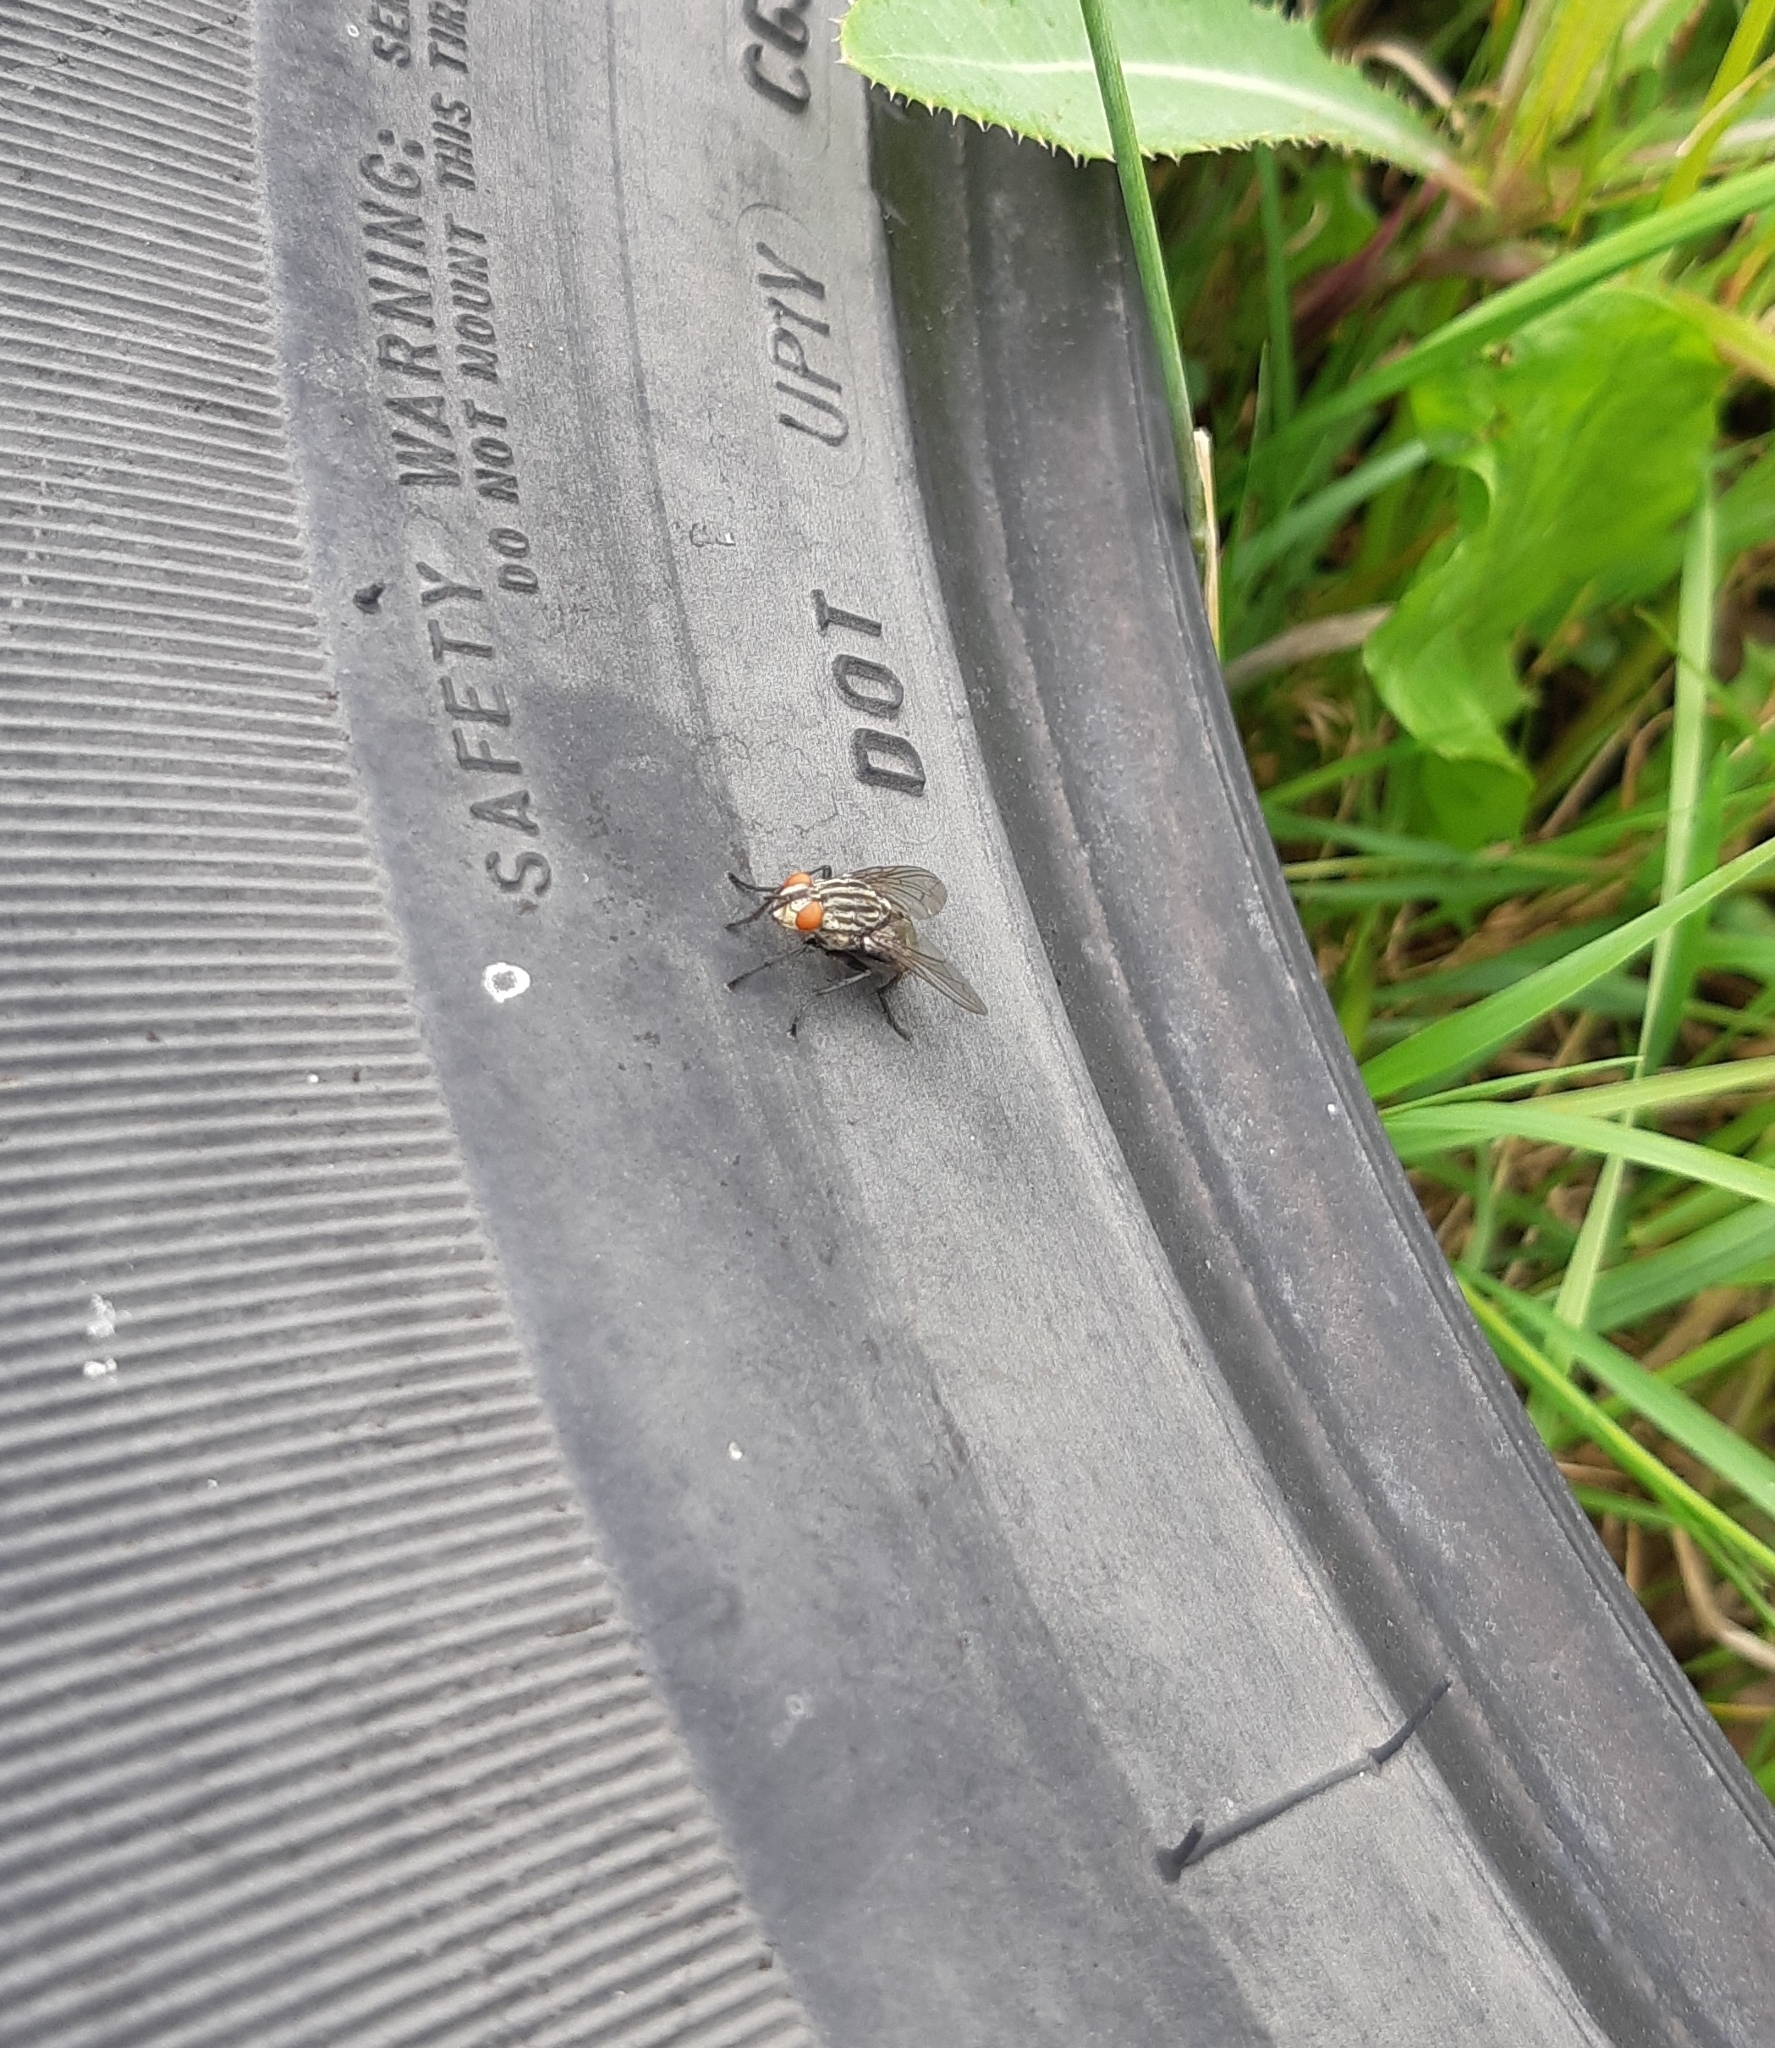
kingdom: Animalia
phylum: Arthropoda
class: Insecta
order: Diptera
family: Sarcophagidae
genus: Sarcophaga
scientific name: Sarcophaga
